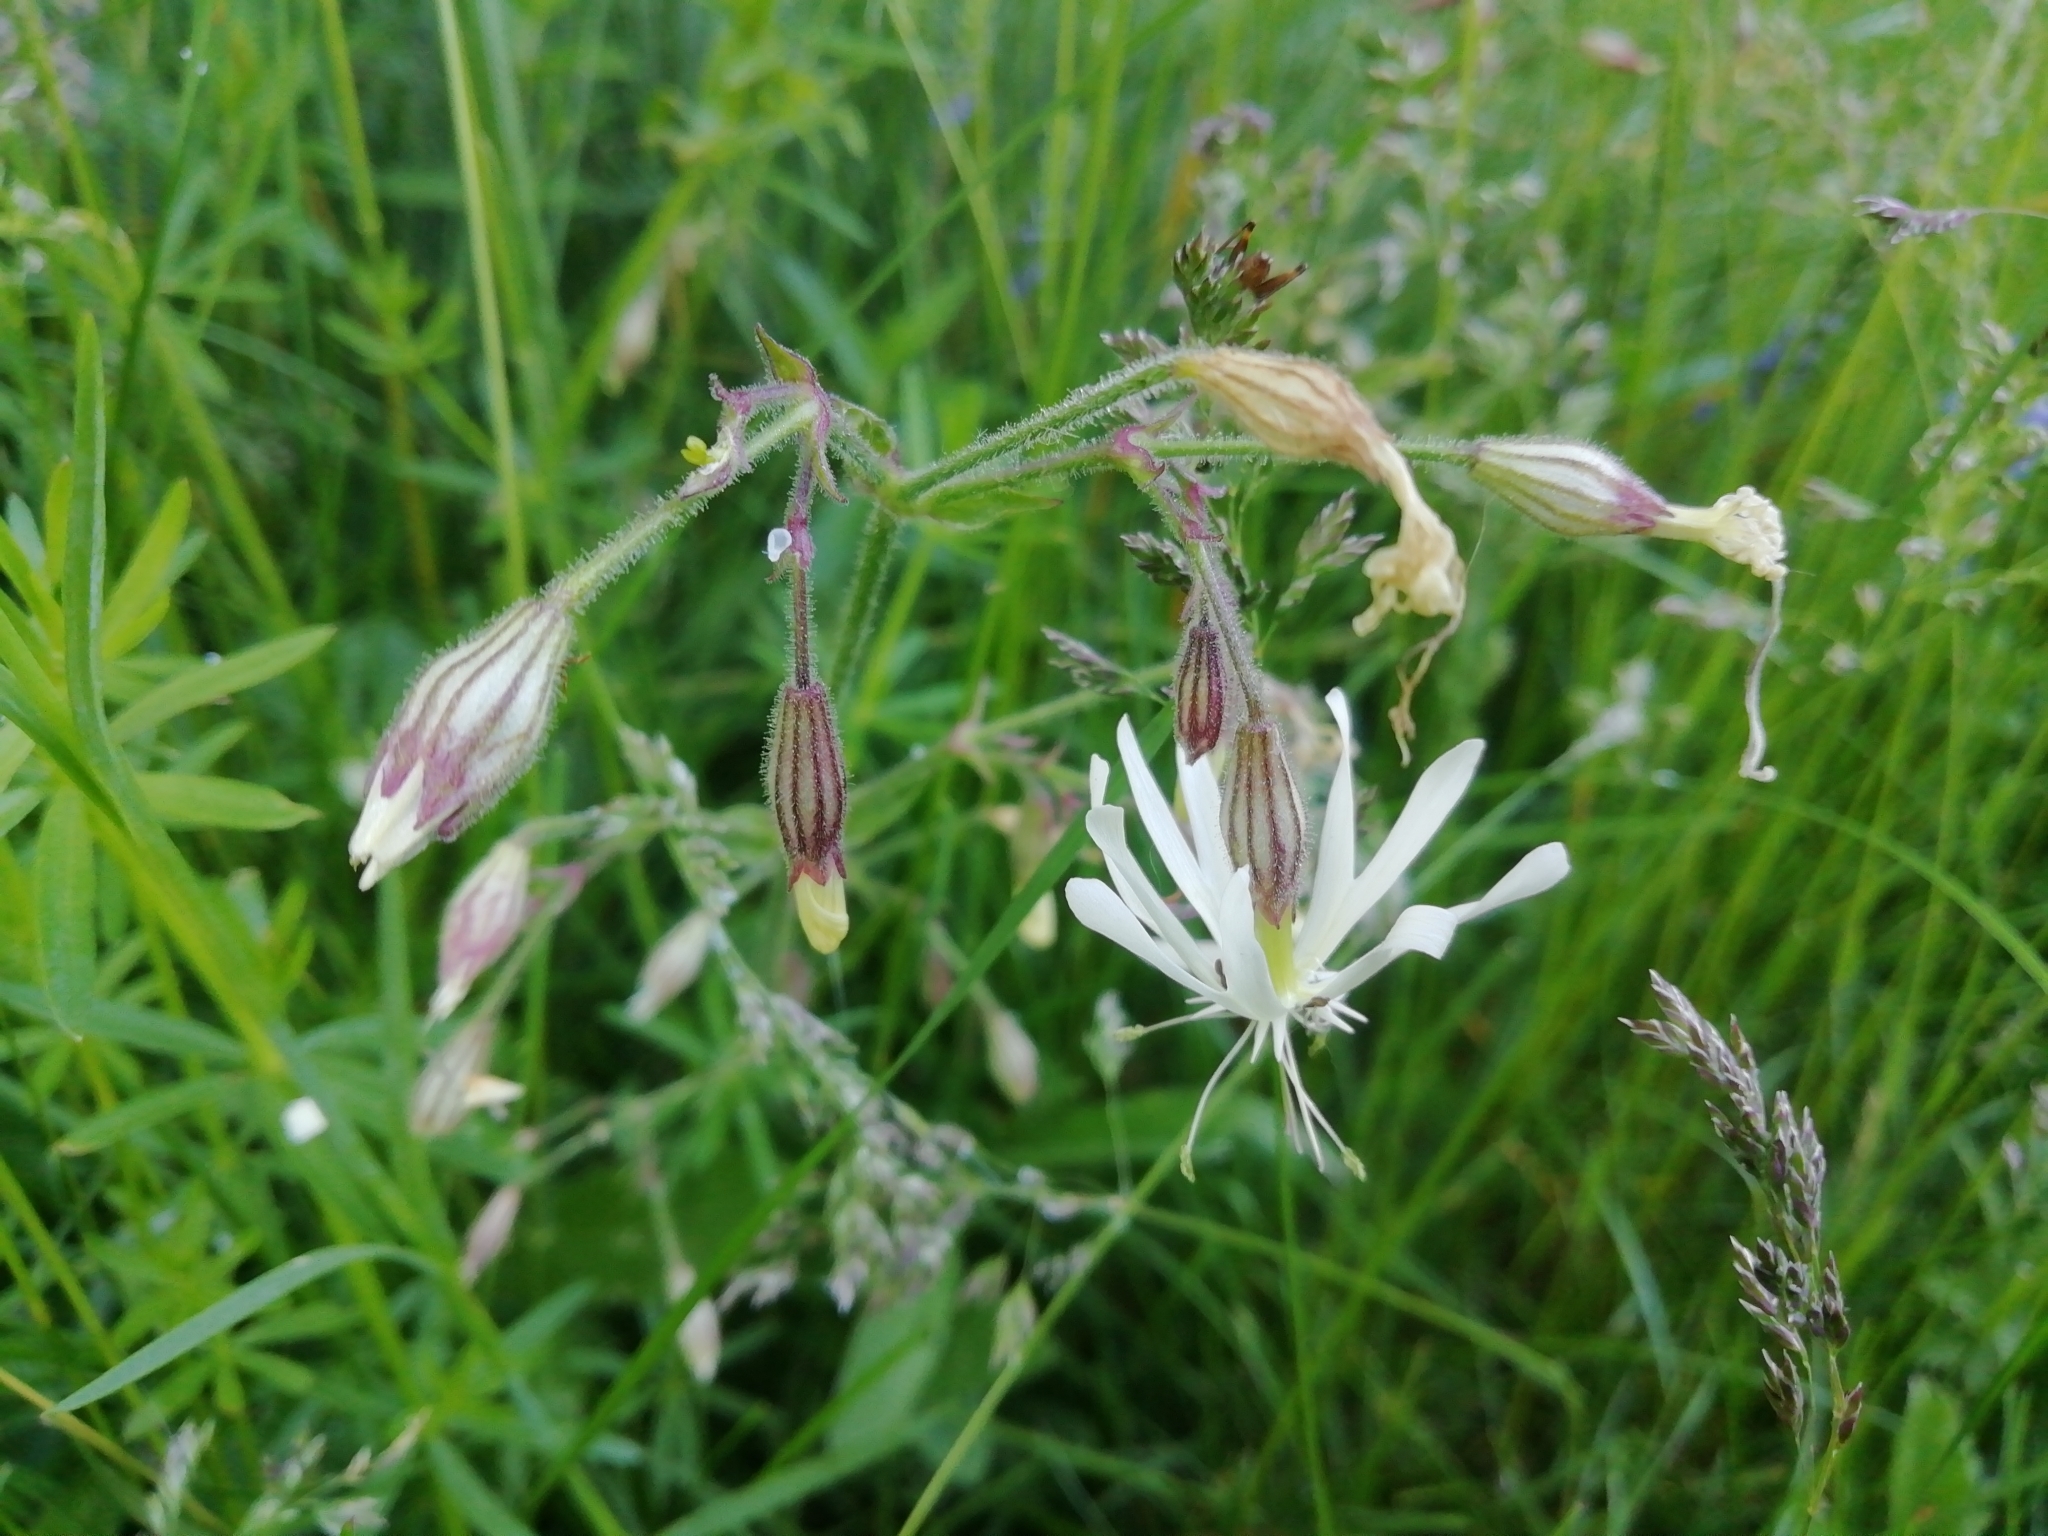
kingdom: Plantae
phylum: Tracheophyta
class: Magnoliopsida
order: Caryophyllales
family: Caryophyllaceae
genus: Silene
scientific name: Silene nutans
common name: Nottingham catchfly
